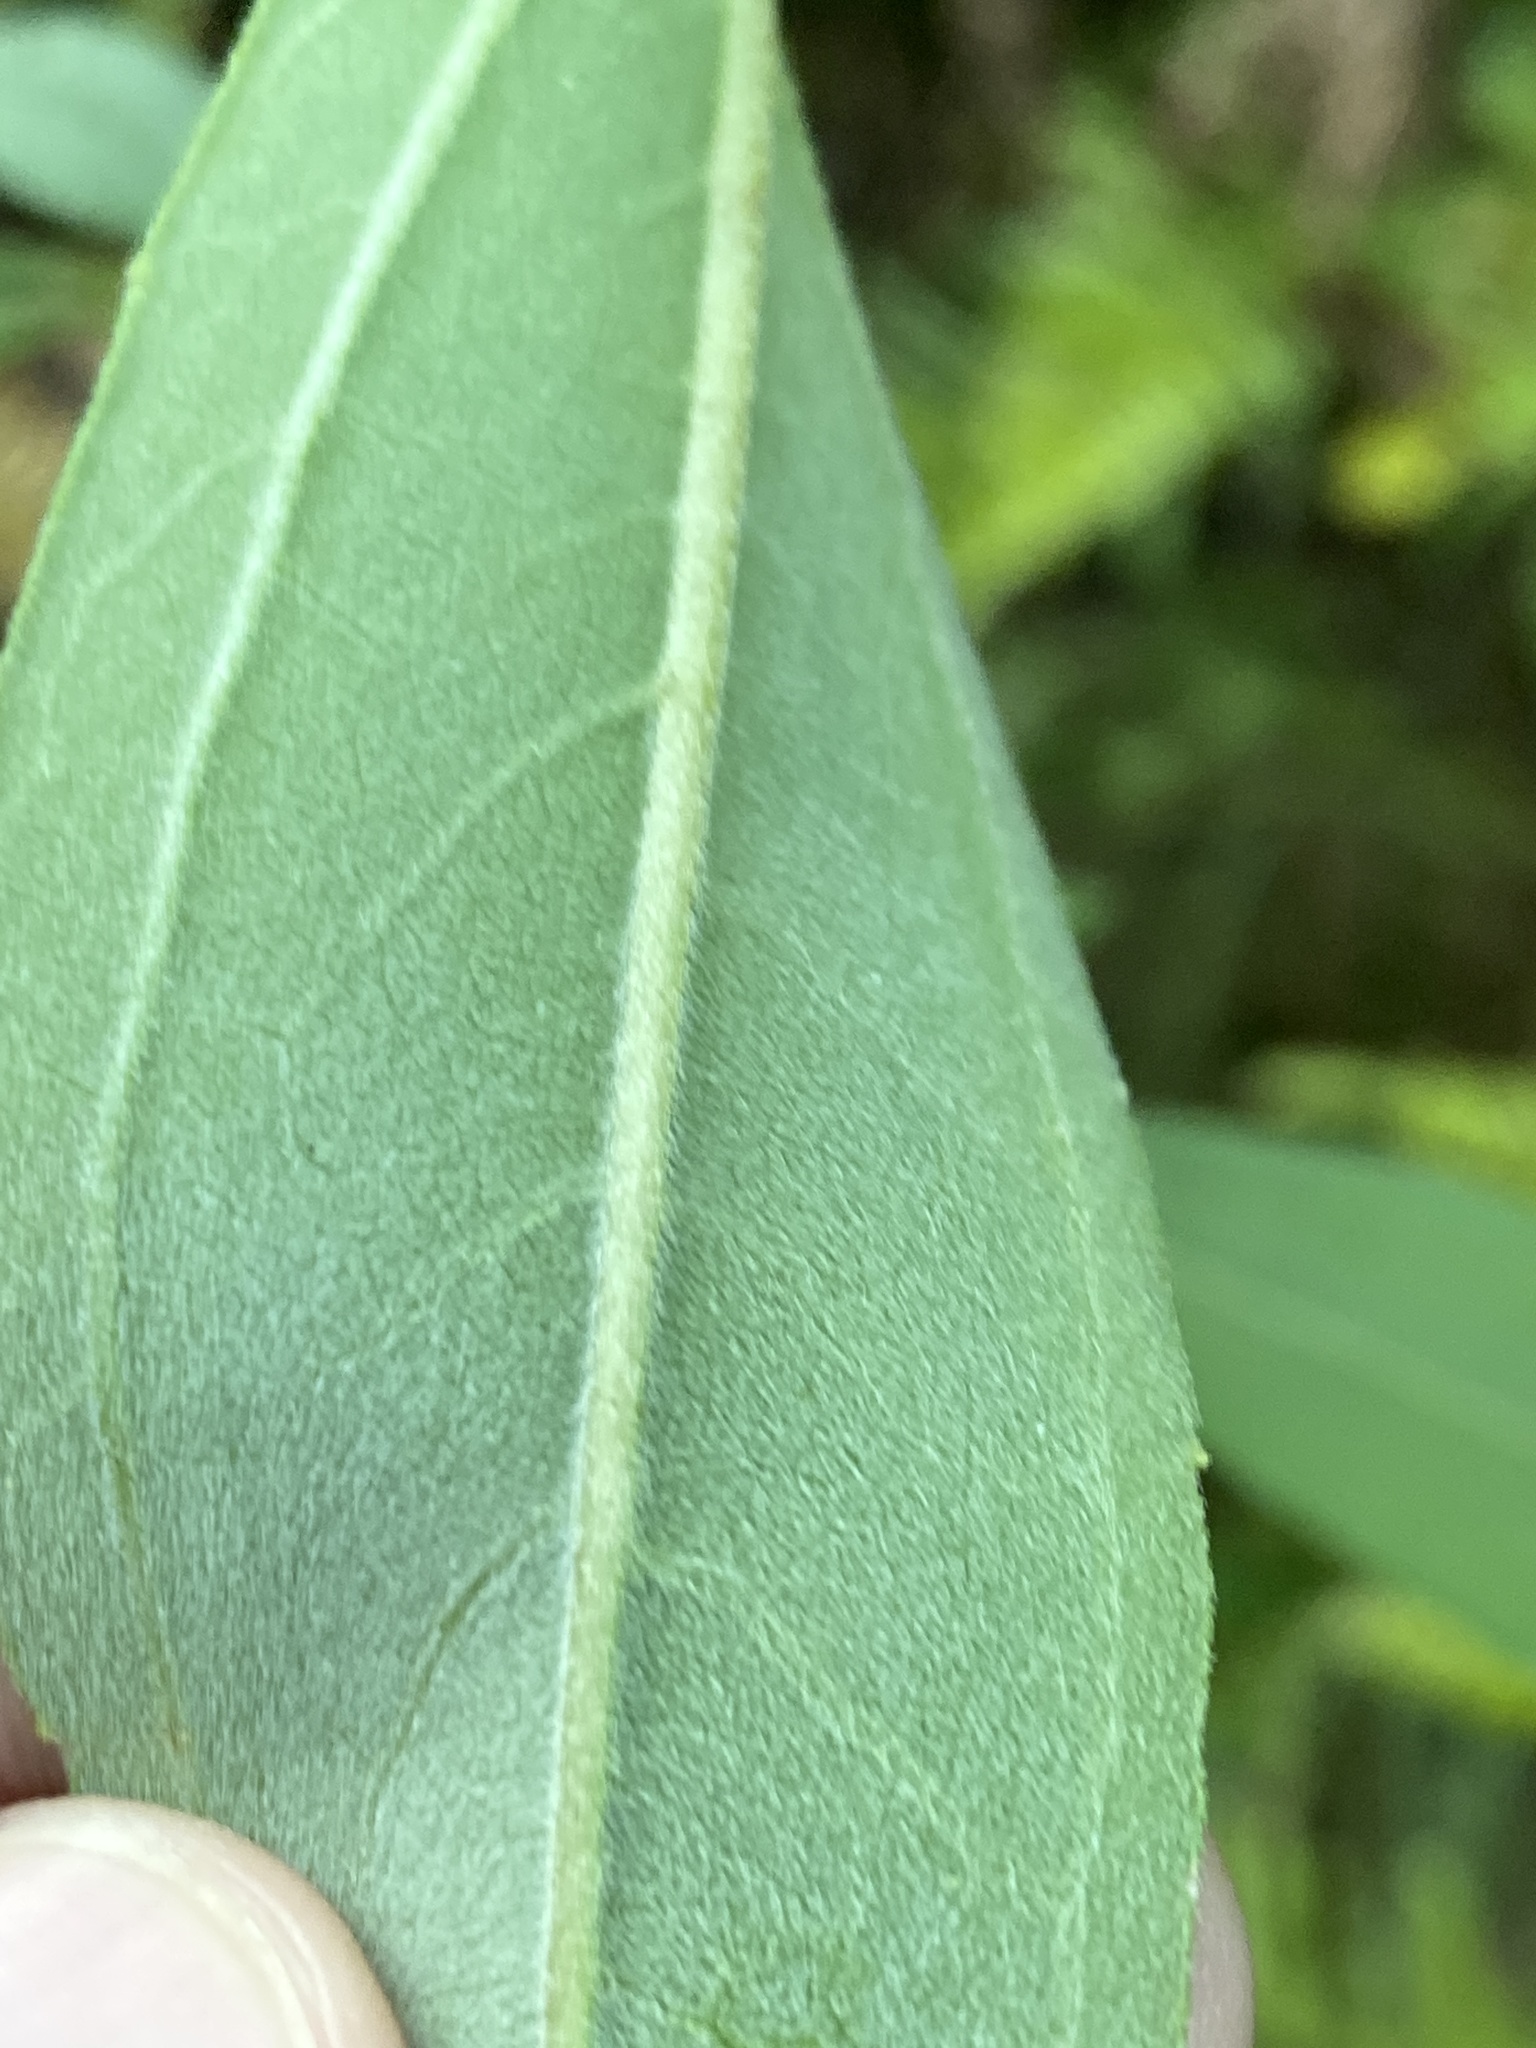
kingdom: Plantae
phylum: Tracheophyta
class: Magnoliopsida
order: Asterales
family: Asteraceae
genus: Helianthus
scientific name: Helianthus schweinitzii
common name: Schweinitz's sunflower
